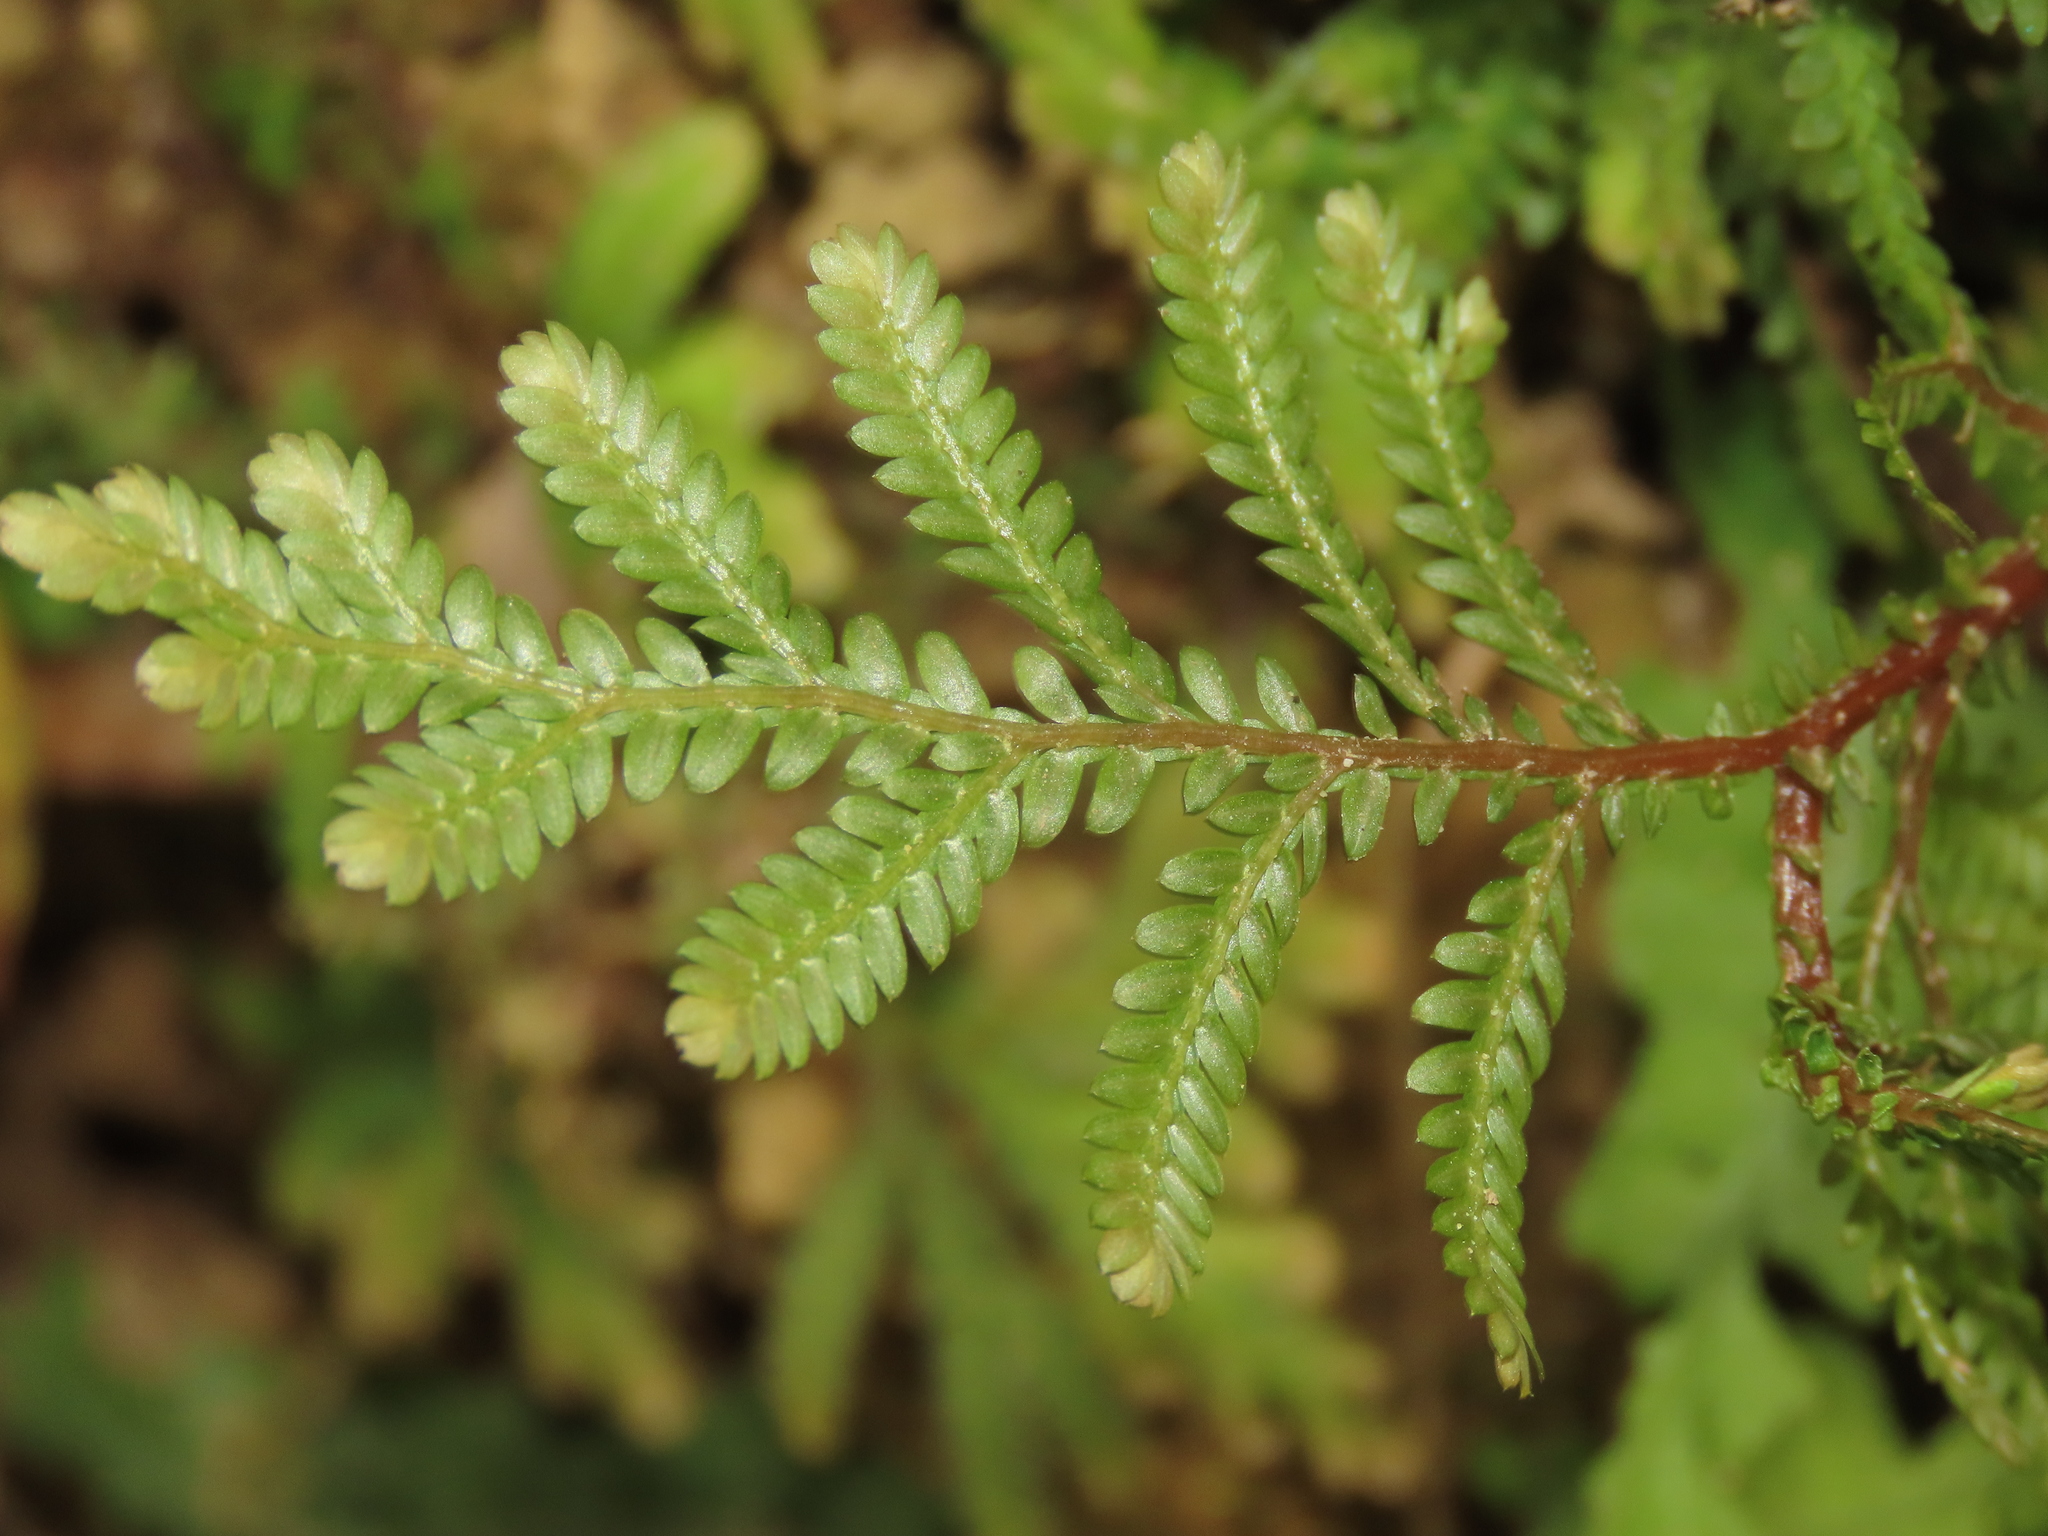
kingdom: Plantae
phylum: Tracheophyta
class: Lycopodiopsida
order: Selaginellales
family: Selaginellaceae
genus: Selaginella
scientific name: Selaginella delicatula
